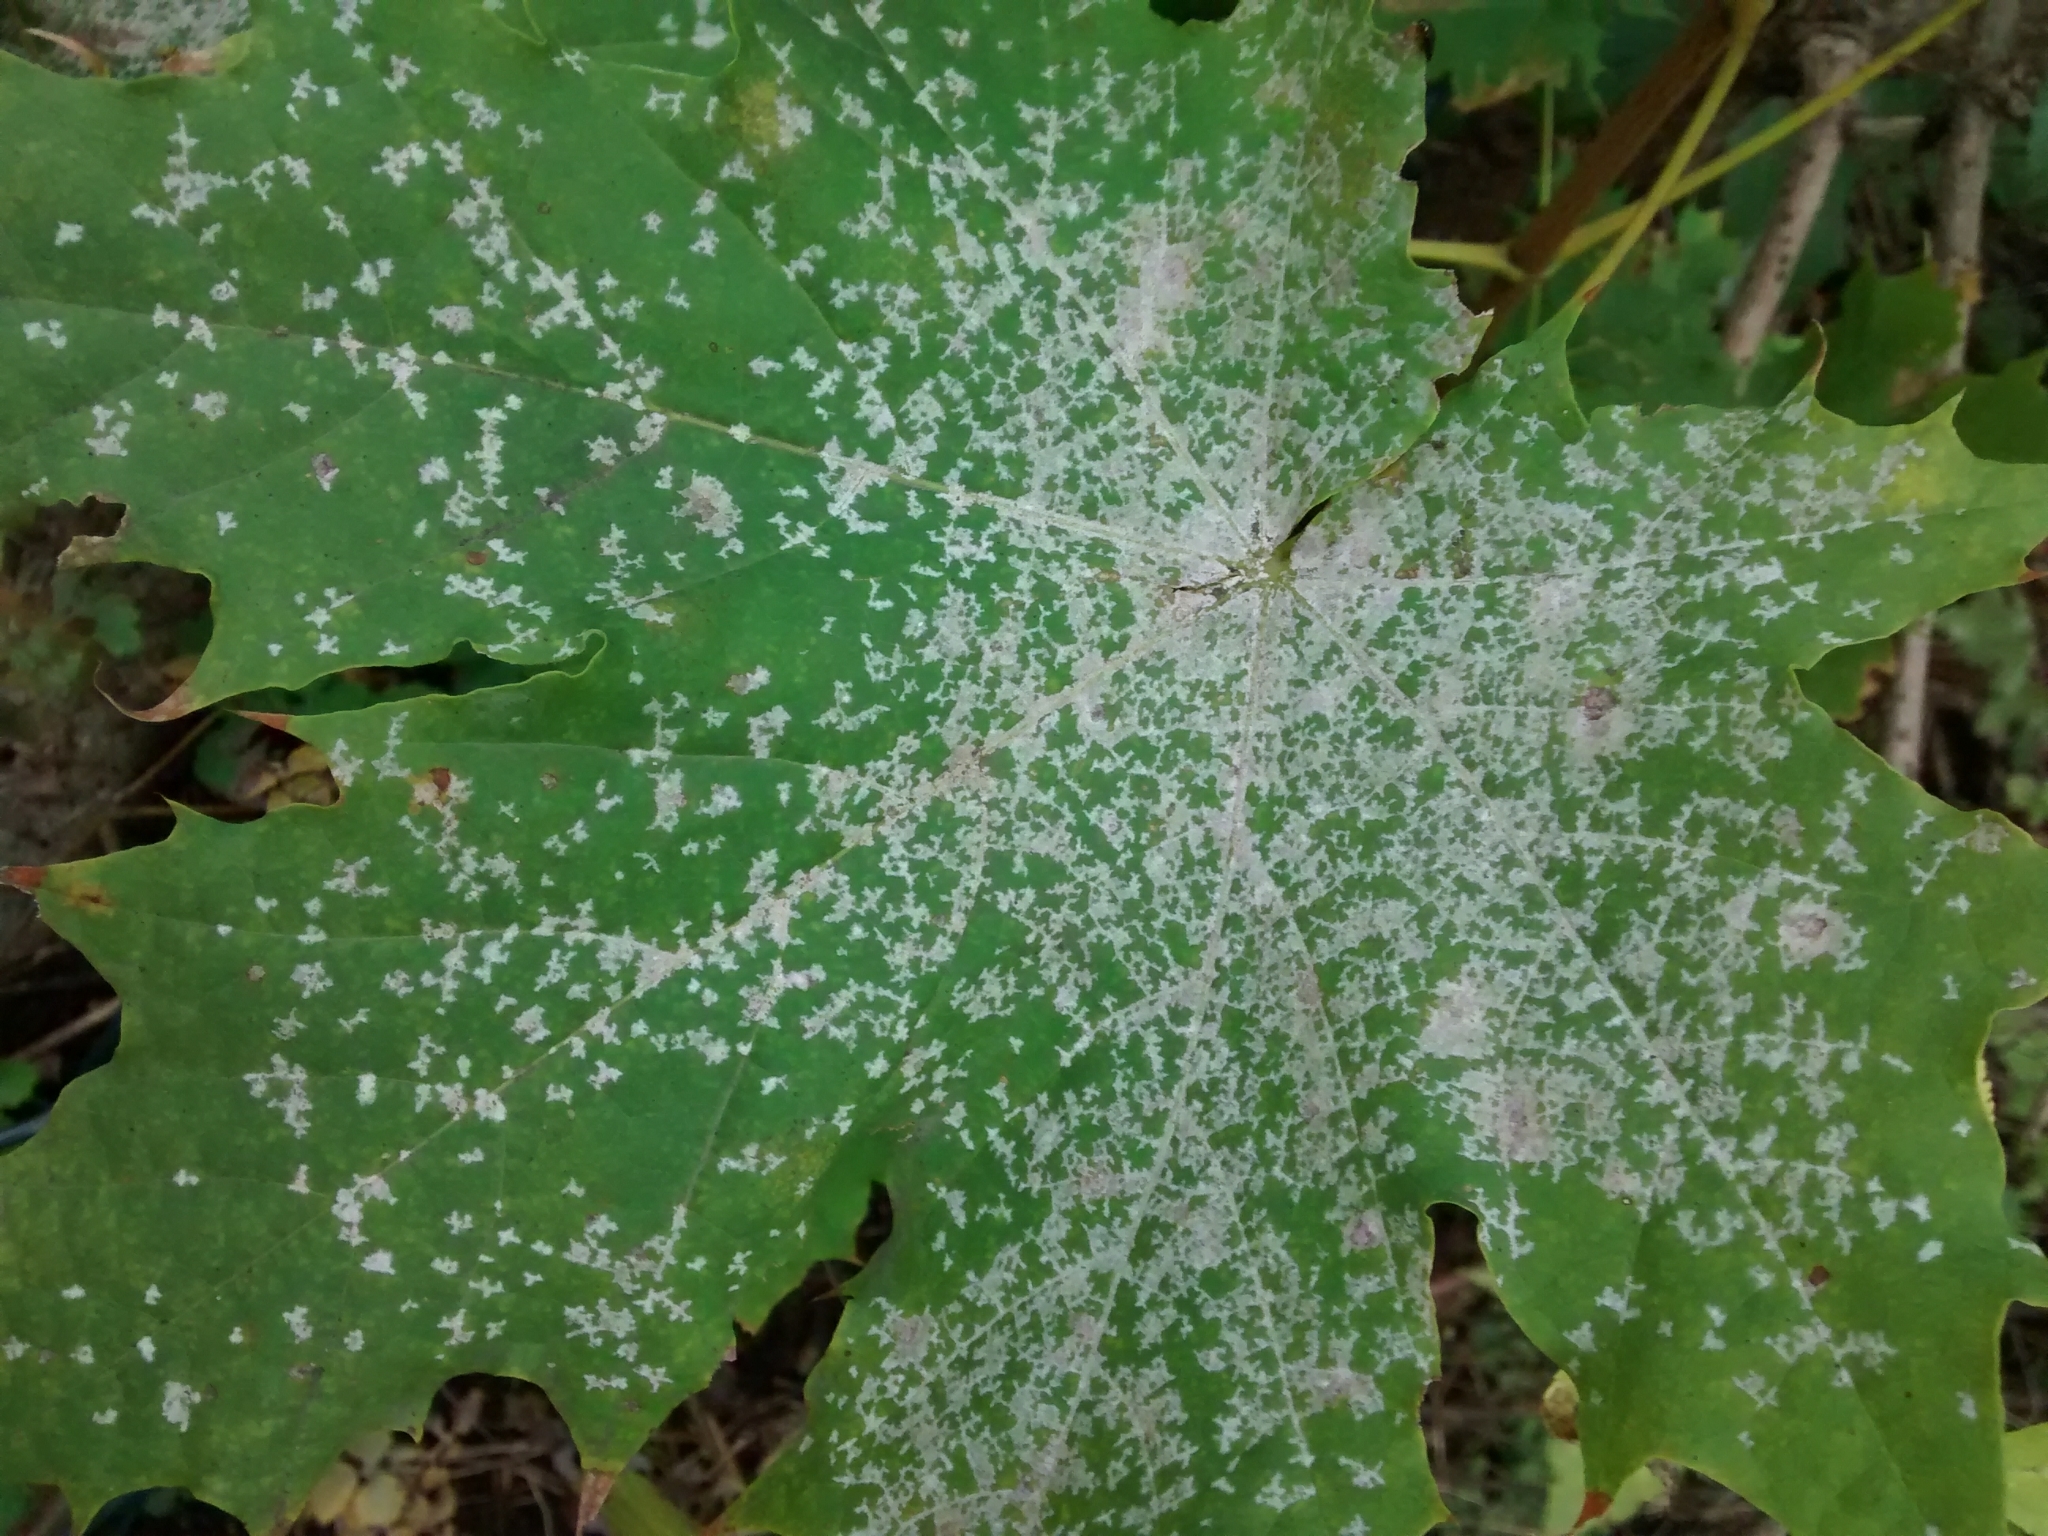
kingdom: Fungi
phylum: Ascomycota
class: Leotiomycetes
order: Helotiales
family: Erysiphaceae
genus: Sawadaea
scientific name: Sawadaea tulasnei
